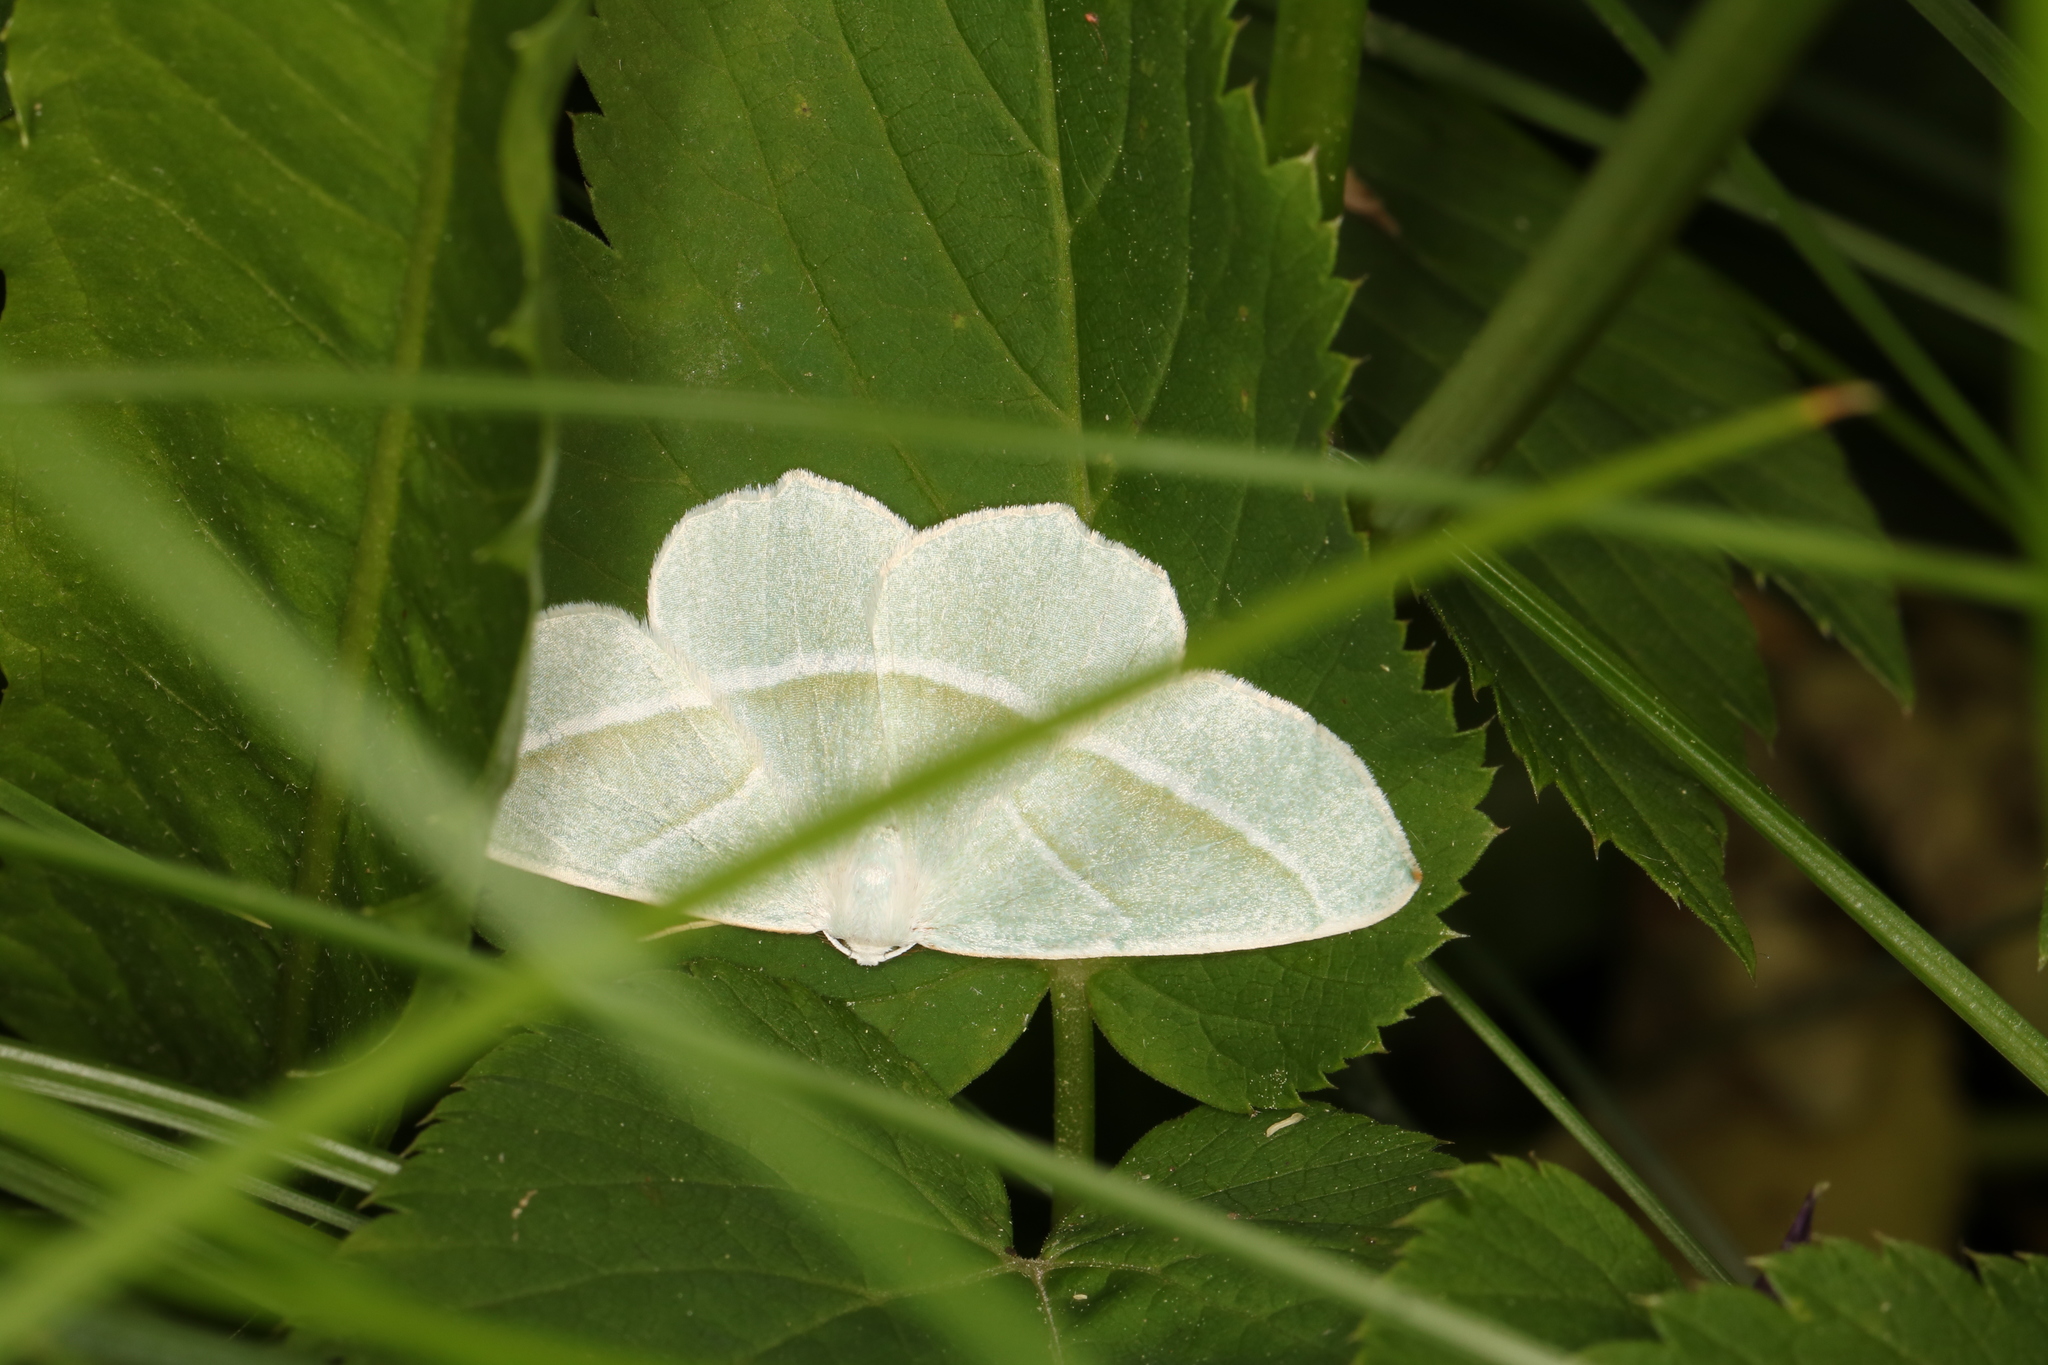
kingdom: Animalia
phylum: Arthropoda
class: Insecta
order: Lepidoptera
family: Geometridae
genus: Campaea
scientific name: Campaea margaritaria
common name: Light emerald
